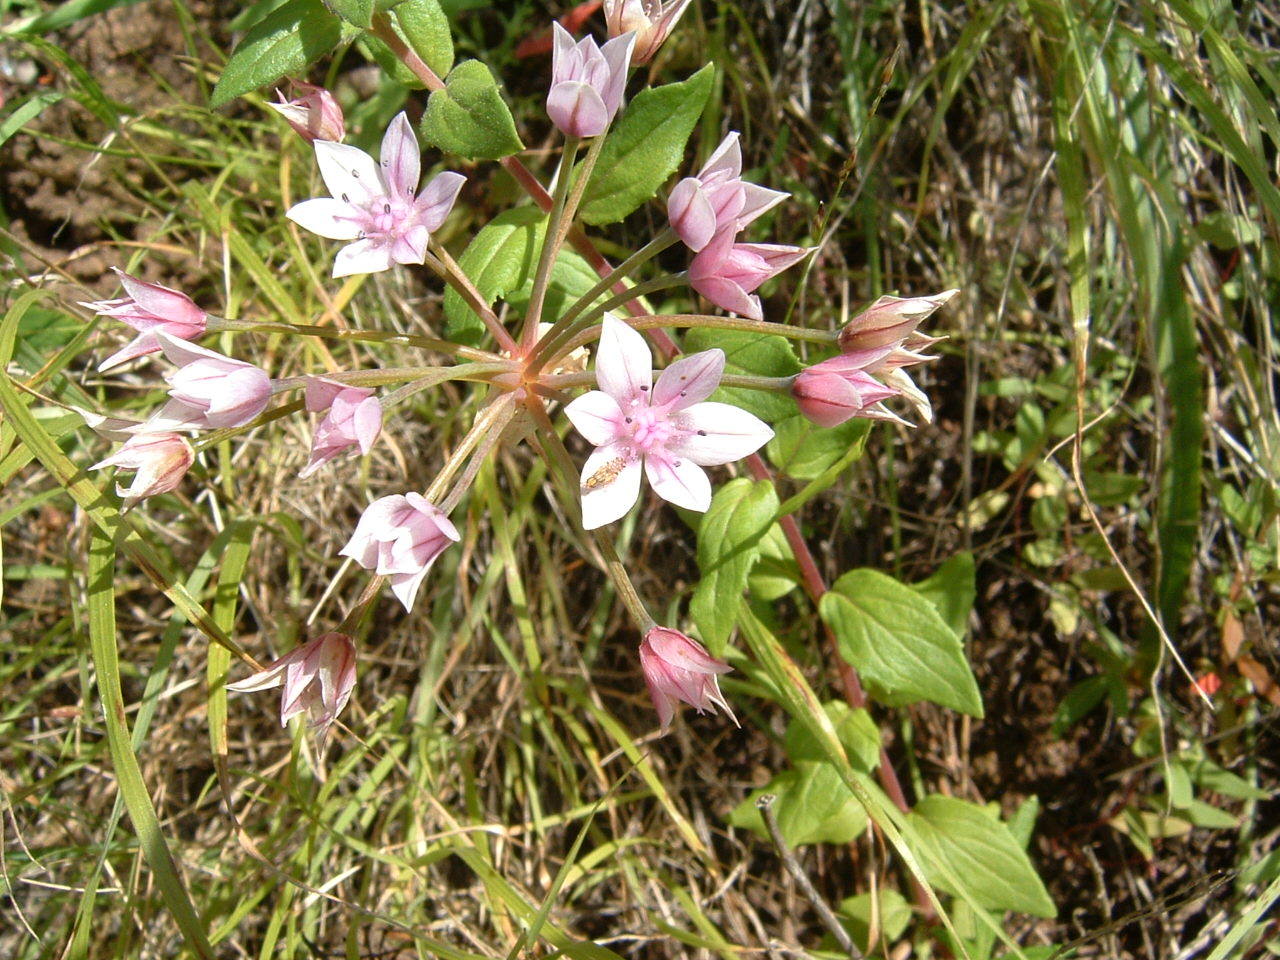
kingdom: Plantae
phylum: Tracheophyta
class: Liliopsida
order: Asparagales
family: Amaryllidaceae
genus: Allium
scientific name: Allium praecox
